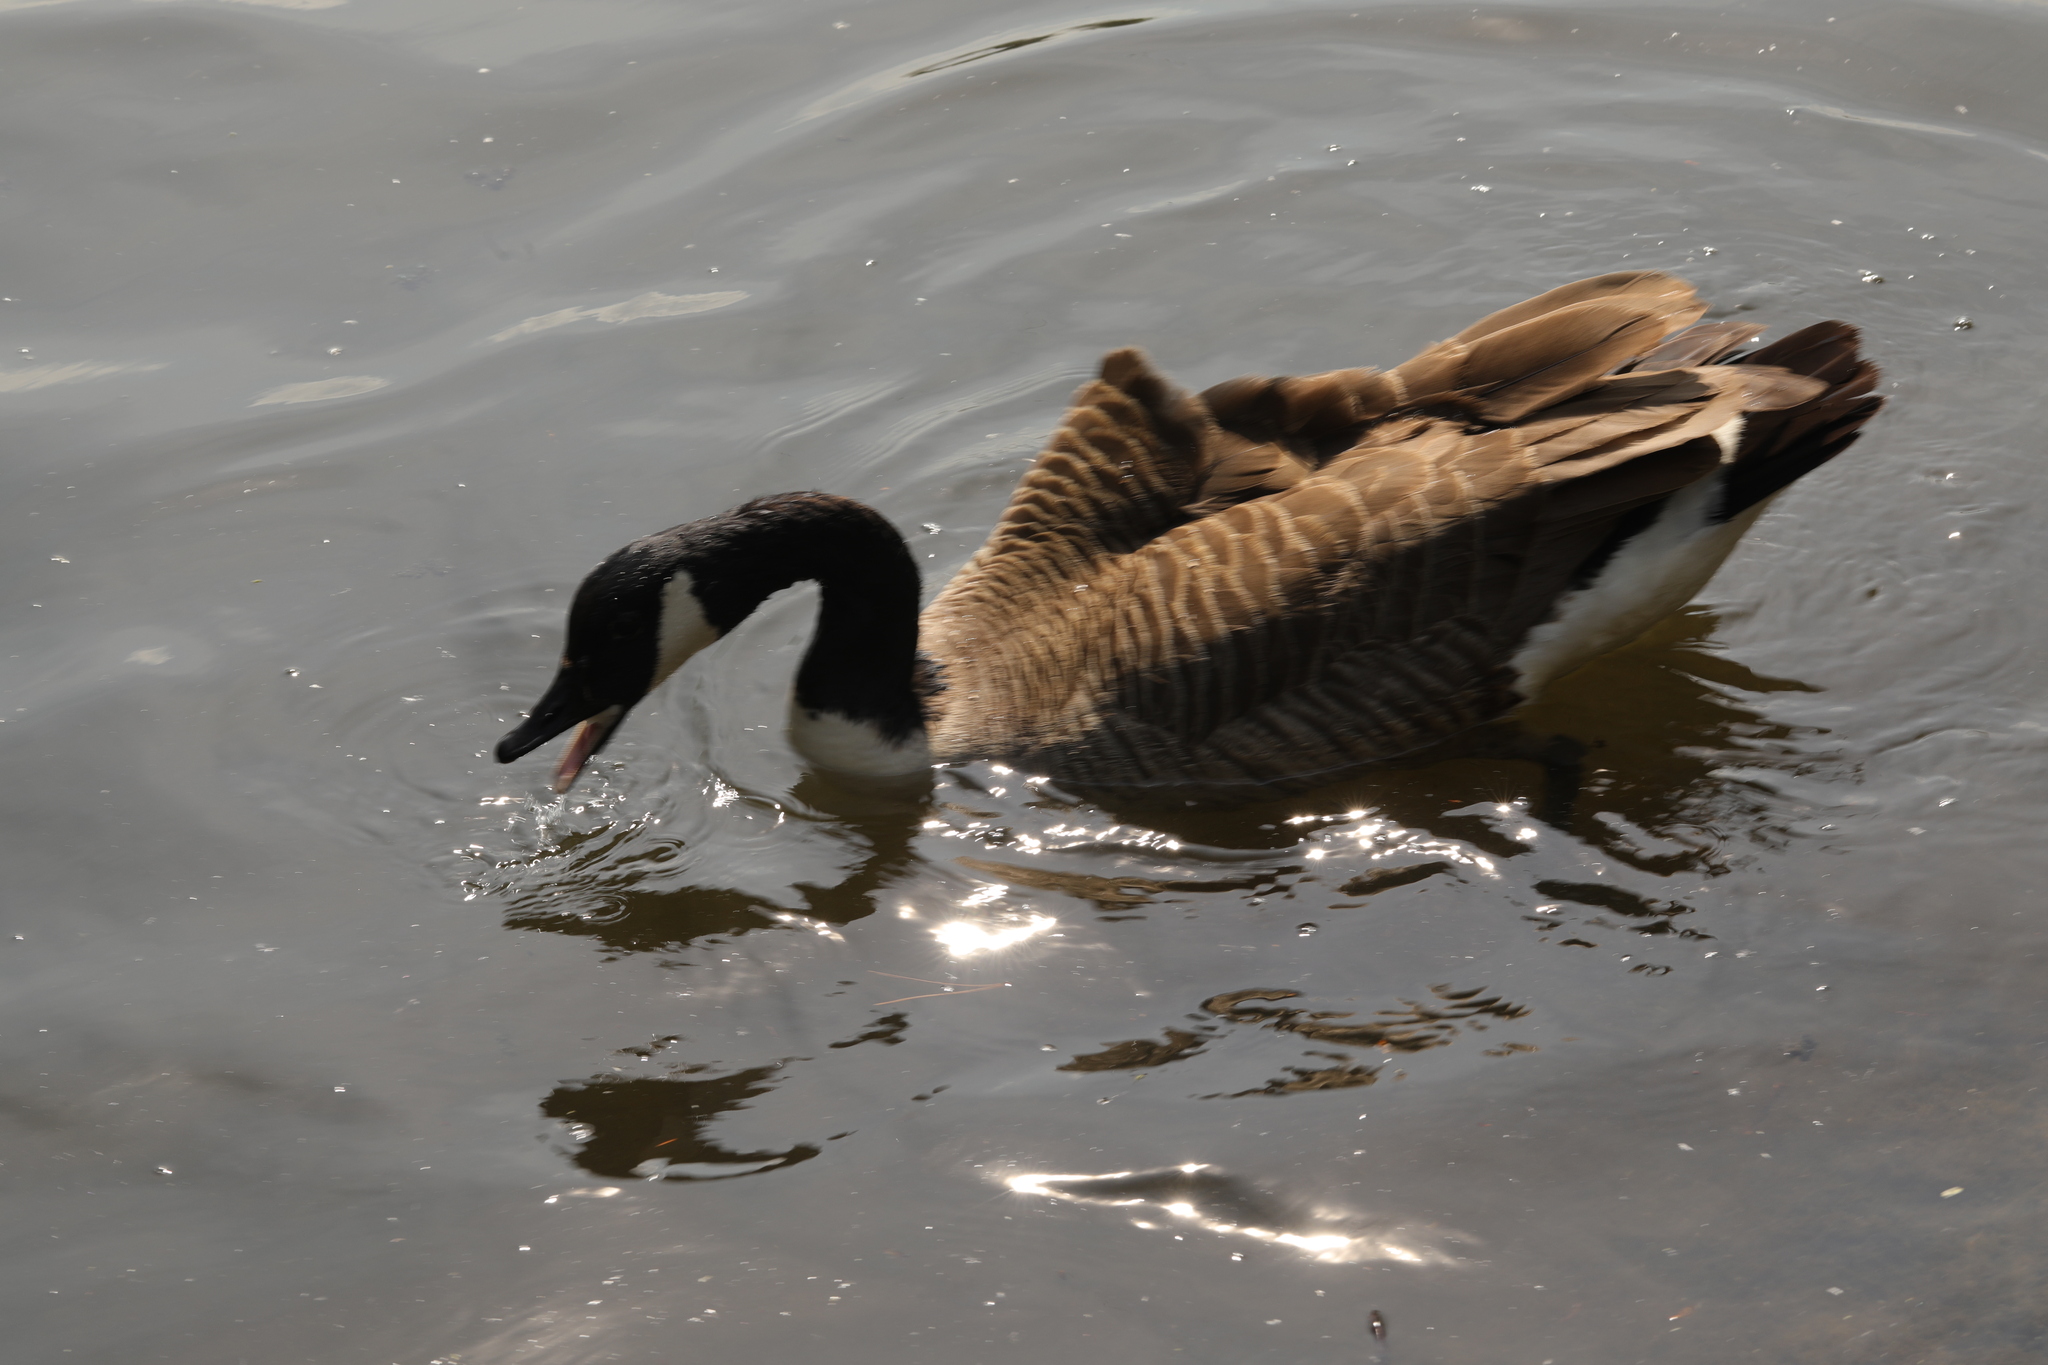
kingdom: Animalia
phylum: Chordata
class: Aves
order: Anseriformes
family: Anatidae
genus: Branta
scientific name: Branta canadensis
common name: Canada goose
